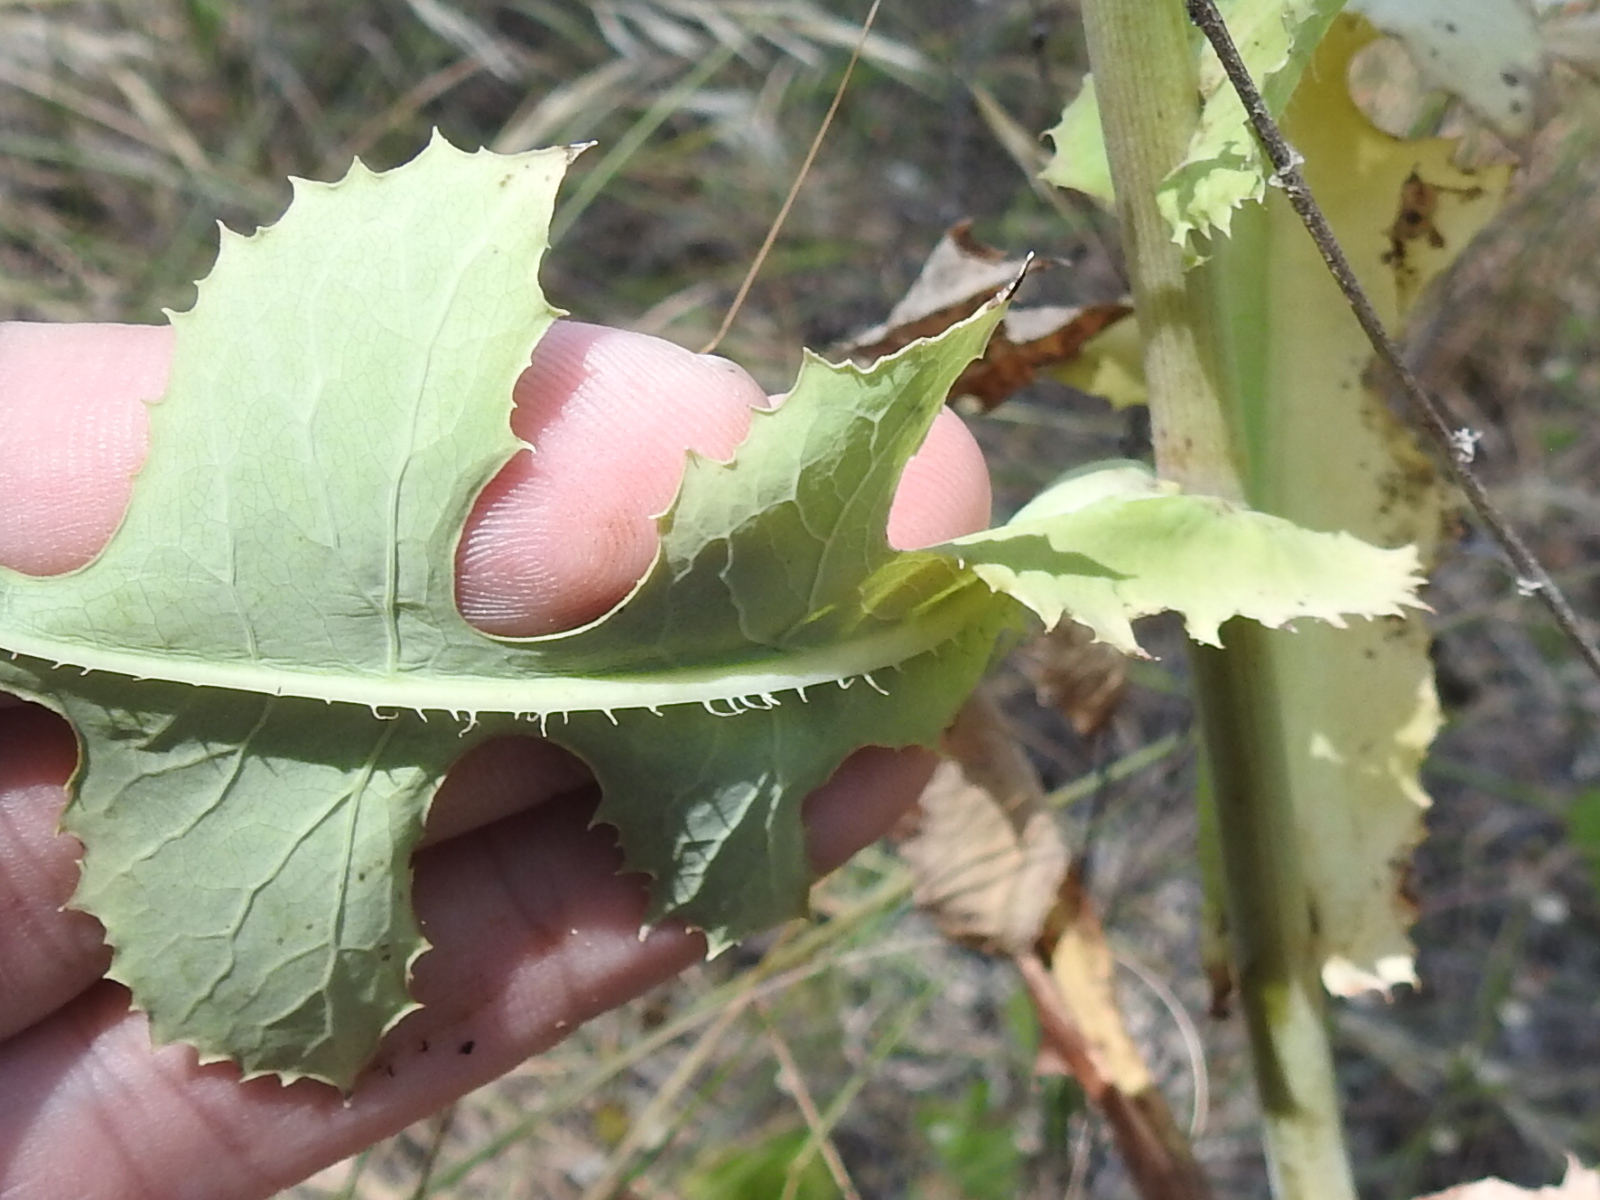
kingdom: Plantae
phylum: Tracheophyta
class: Magnoliopsida
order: Asterales
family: Asteraceae
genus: Lactuca
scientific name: Lactuca ludoviciana
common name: Louisiana lettuce
